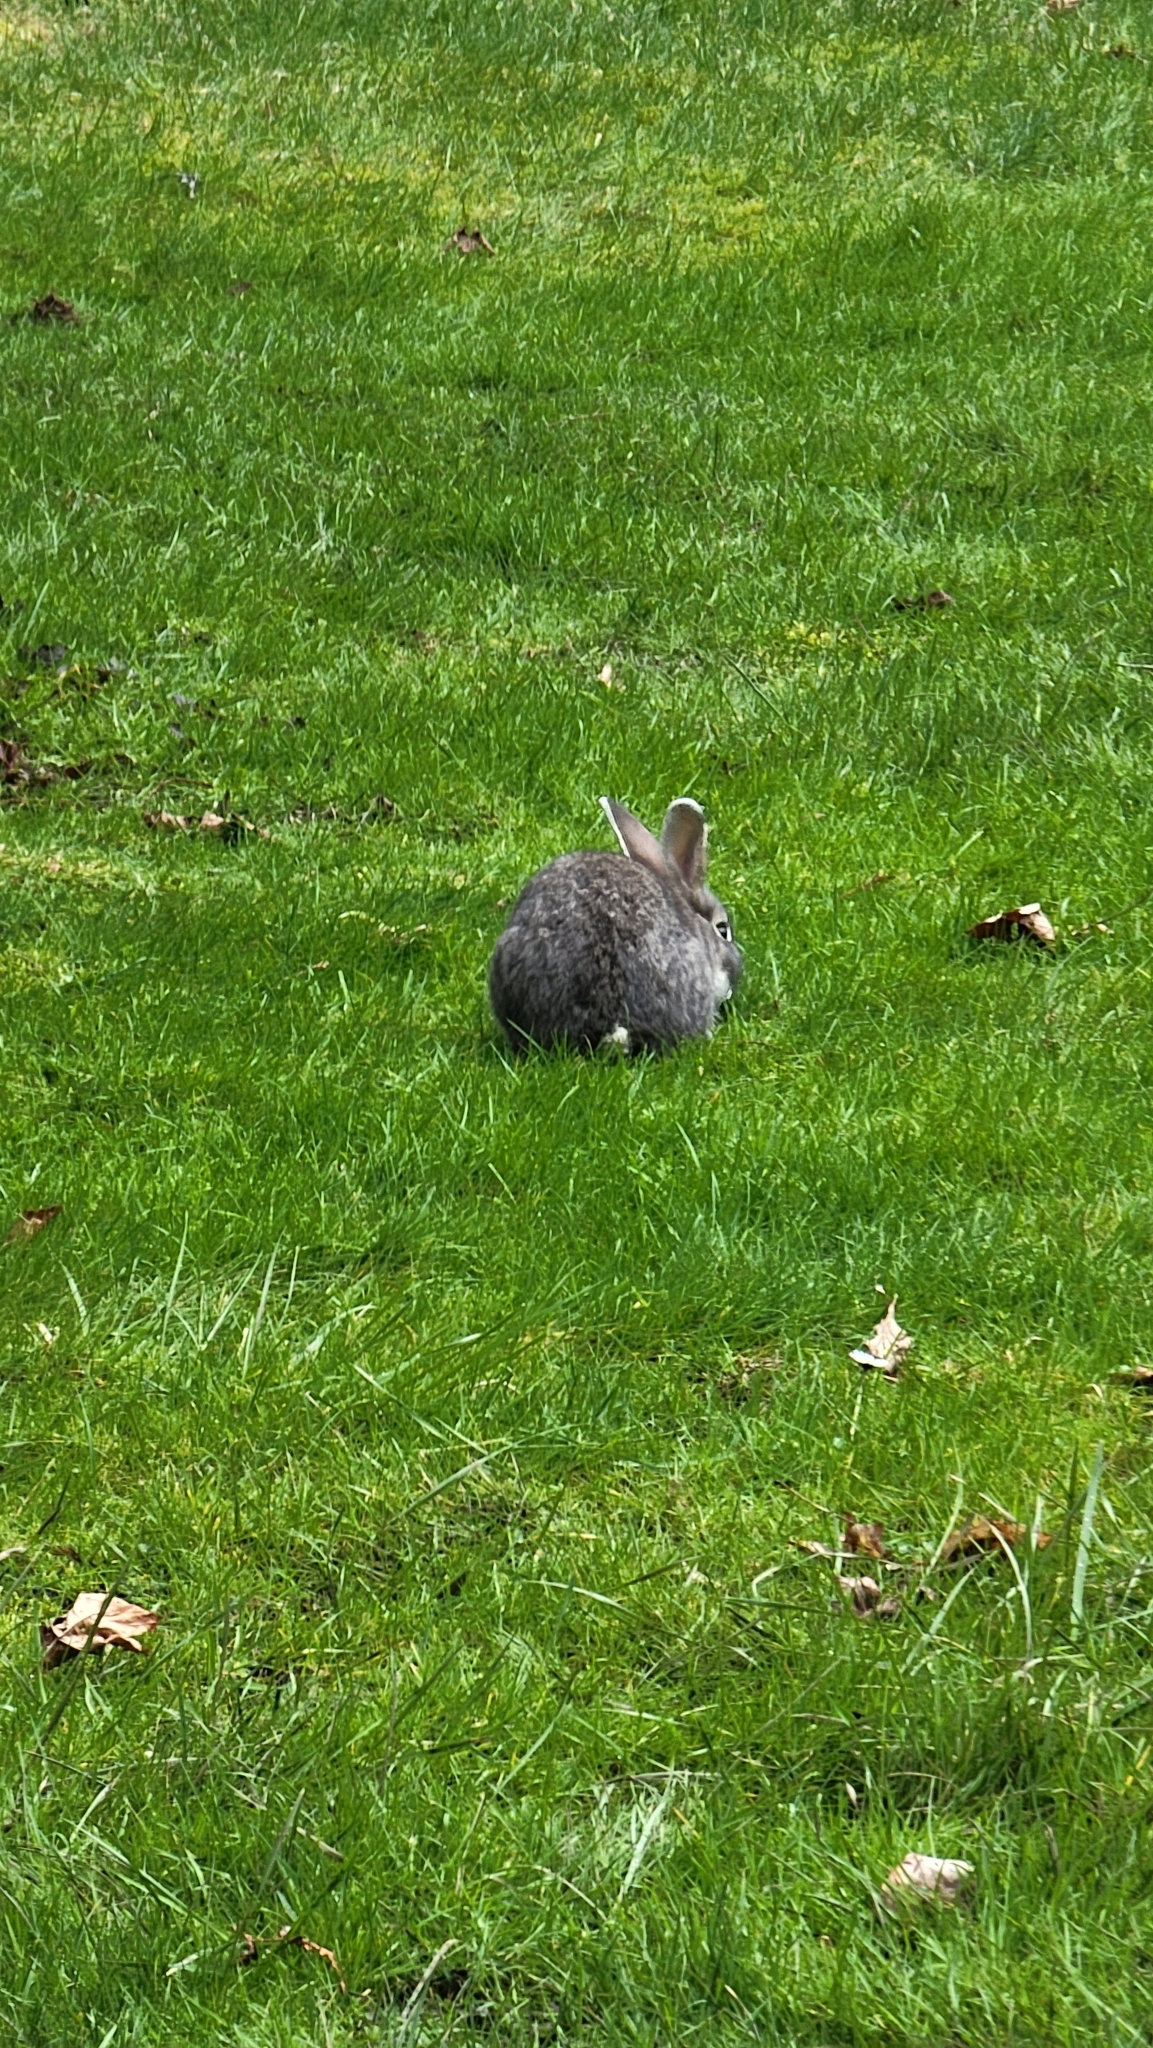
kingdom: Animalia
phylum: Chordata
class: Mammalia
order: Lagomorpha
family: Leporidae
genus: Oryctolagus
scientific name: Oryctolagus cuniculus
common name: European rabbit
